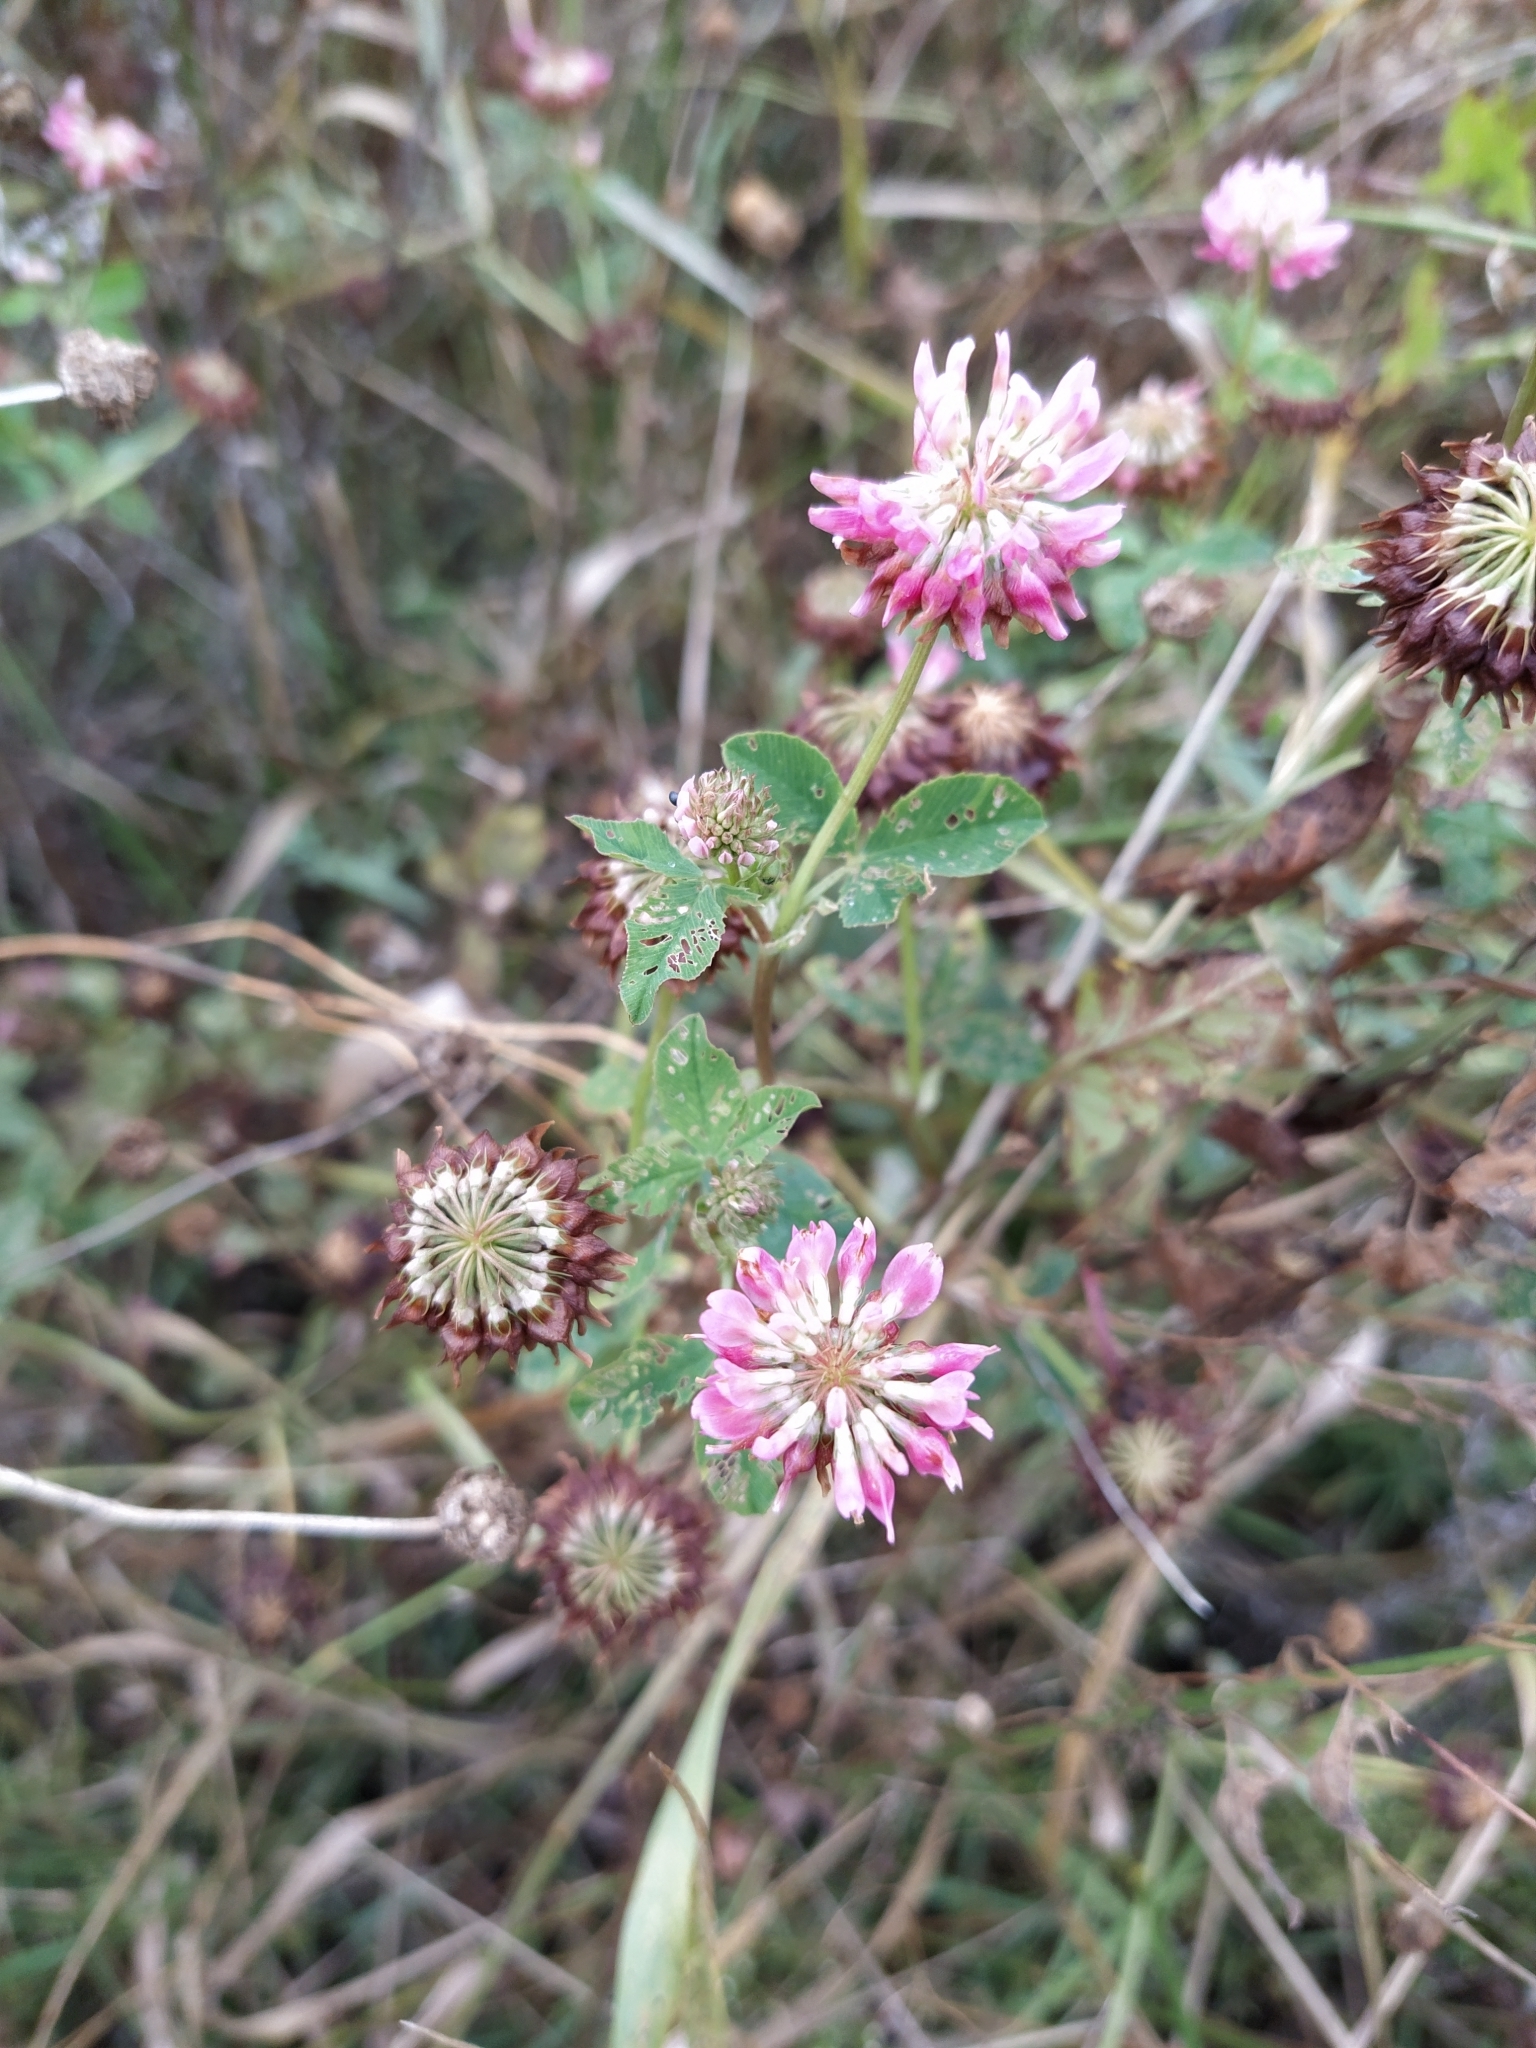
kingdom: Plantae
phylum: Tracheophyta
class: Magnoliopsida
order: Fabales
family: Fabaceae
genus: Trifolium
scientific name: Trifolium hybridum
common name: Alsike clover
